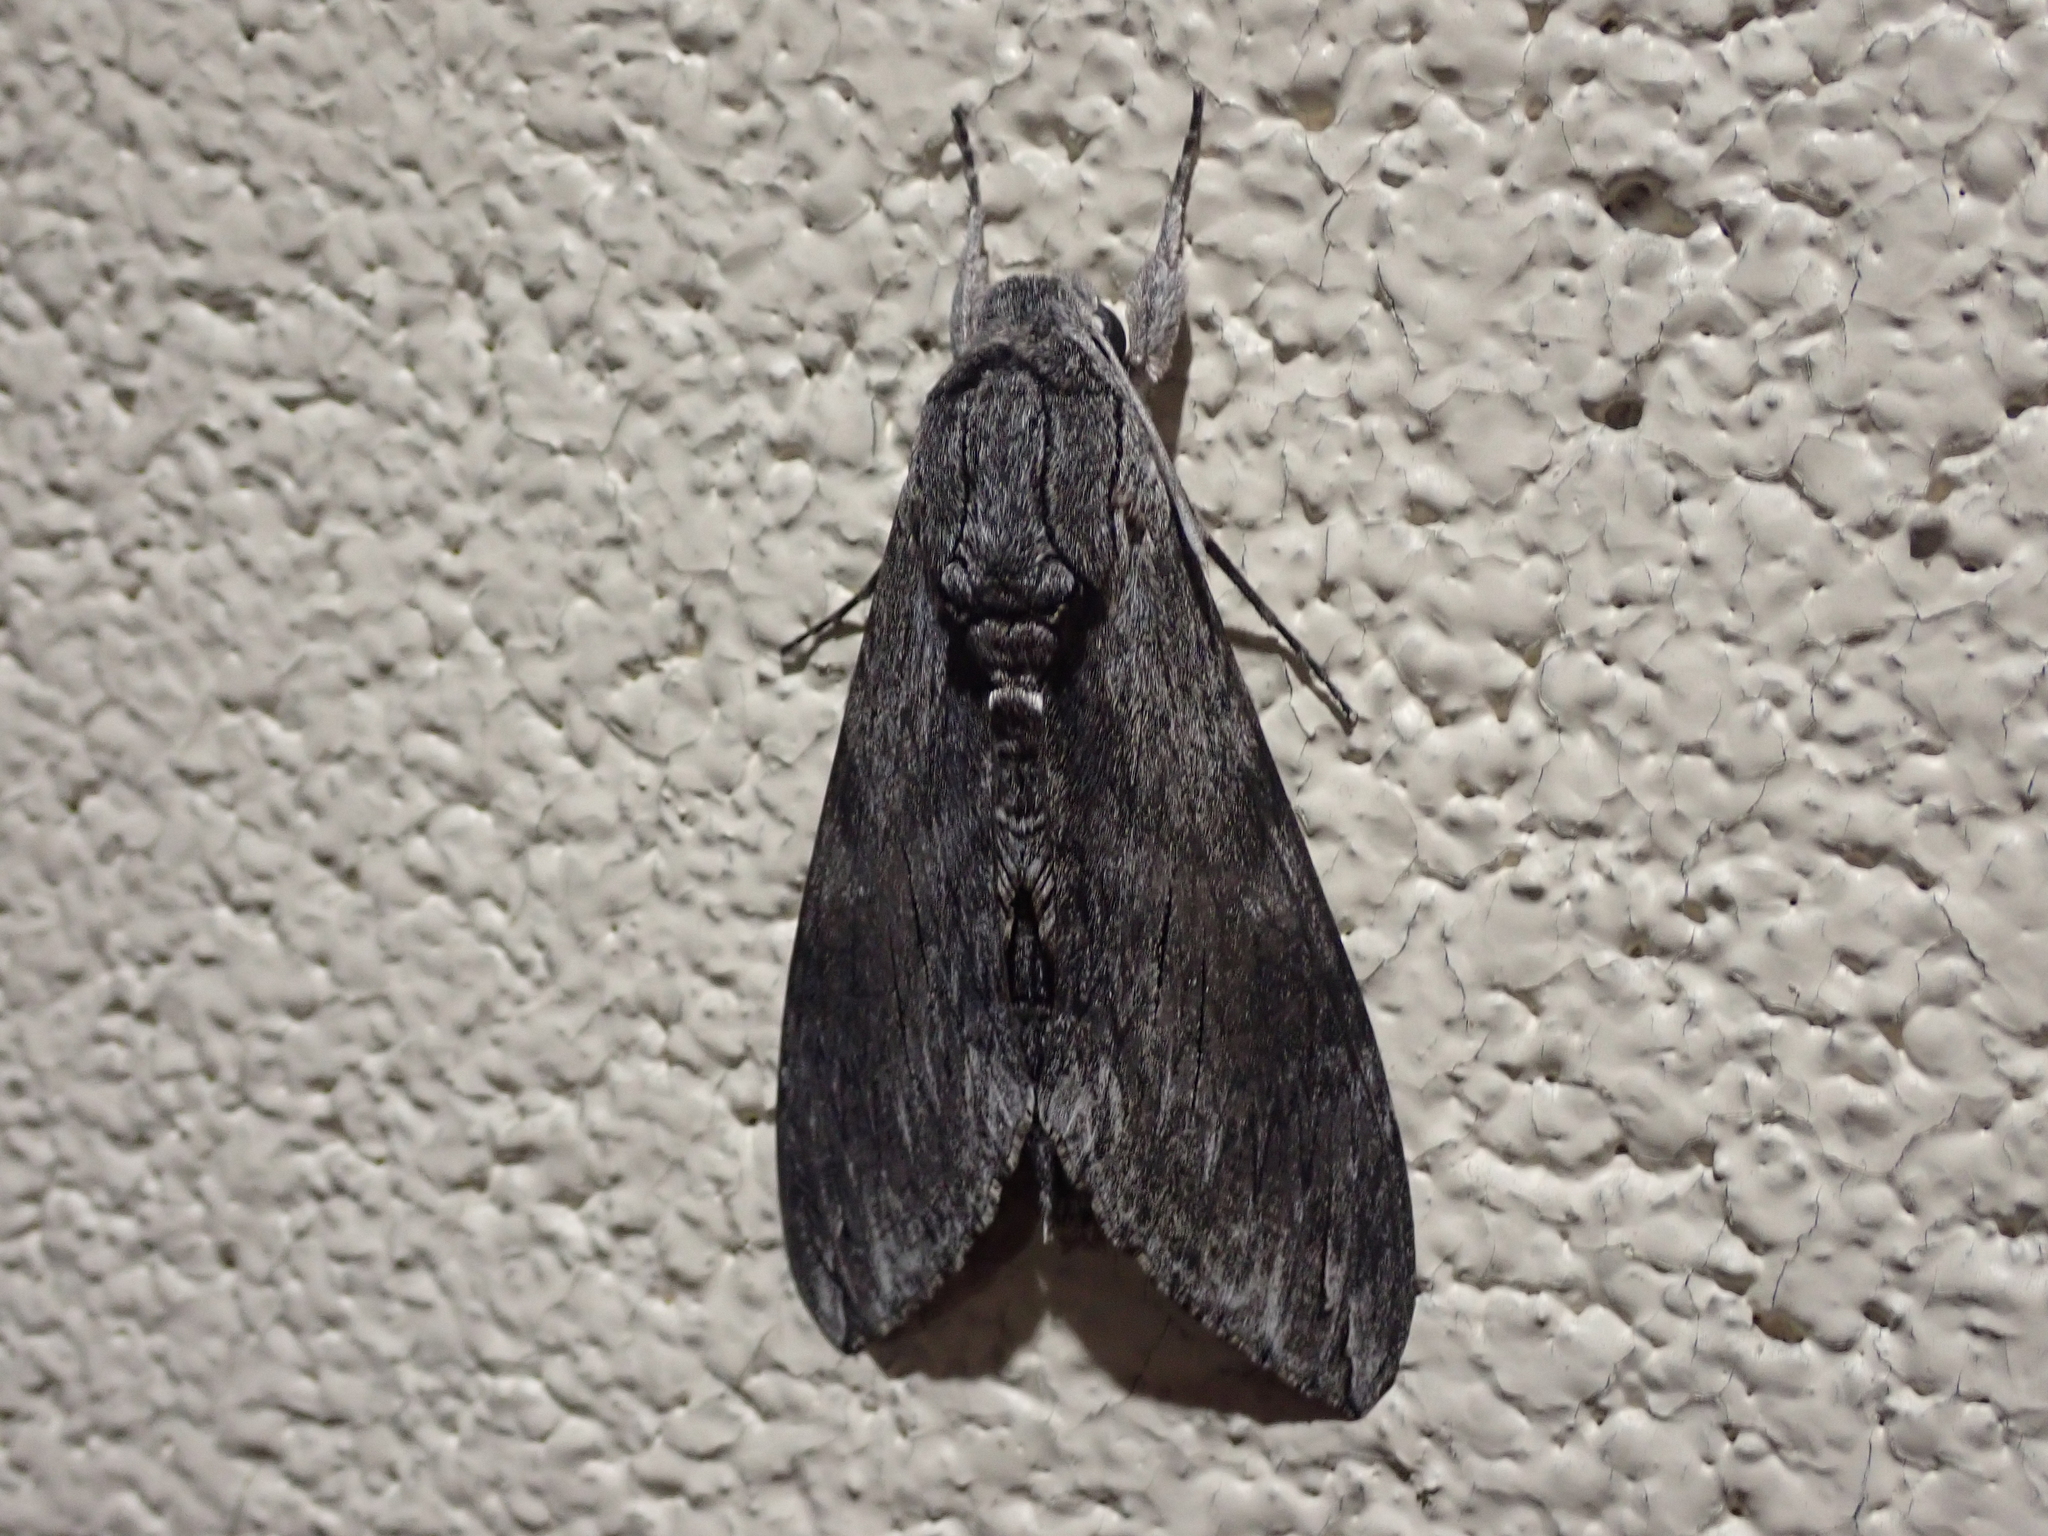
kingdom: Animalia
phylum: Arthropoda
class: Insecta
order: Lepidoptera
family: Sphingidae
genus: Agrius
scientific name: Agrius convolvuli
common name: Convolvulus hawkmoth
